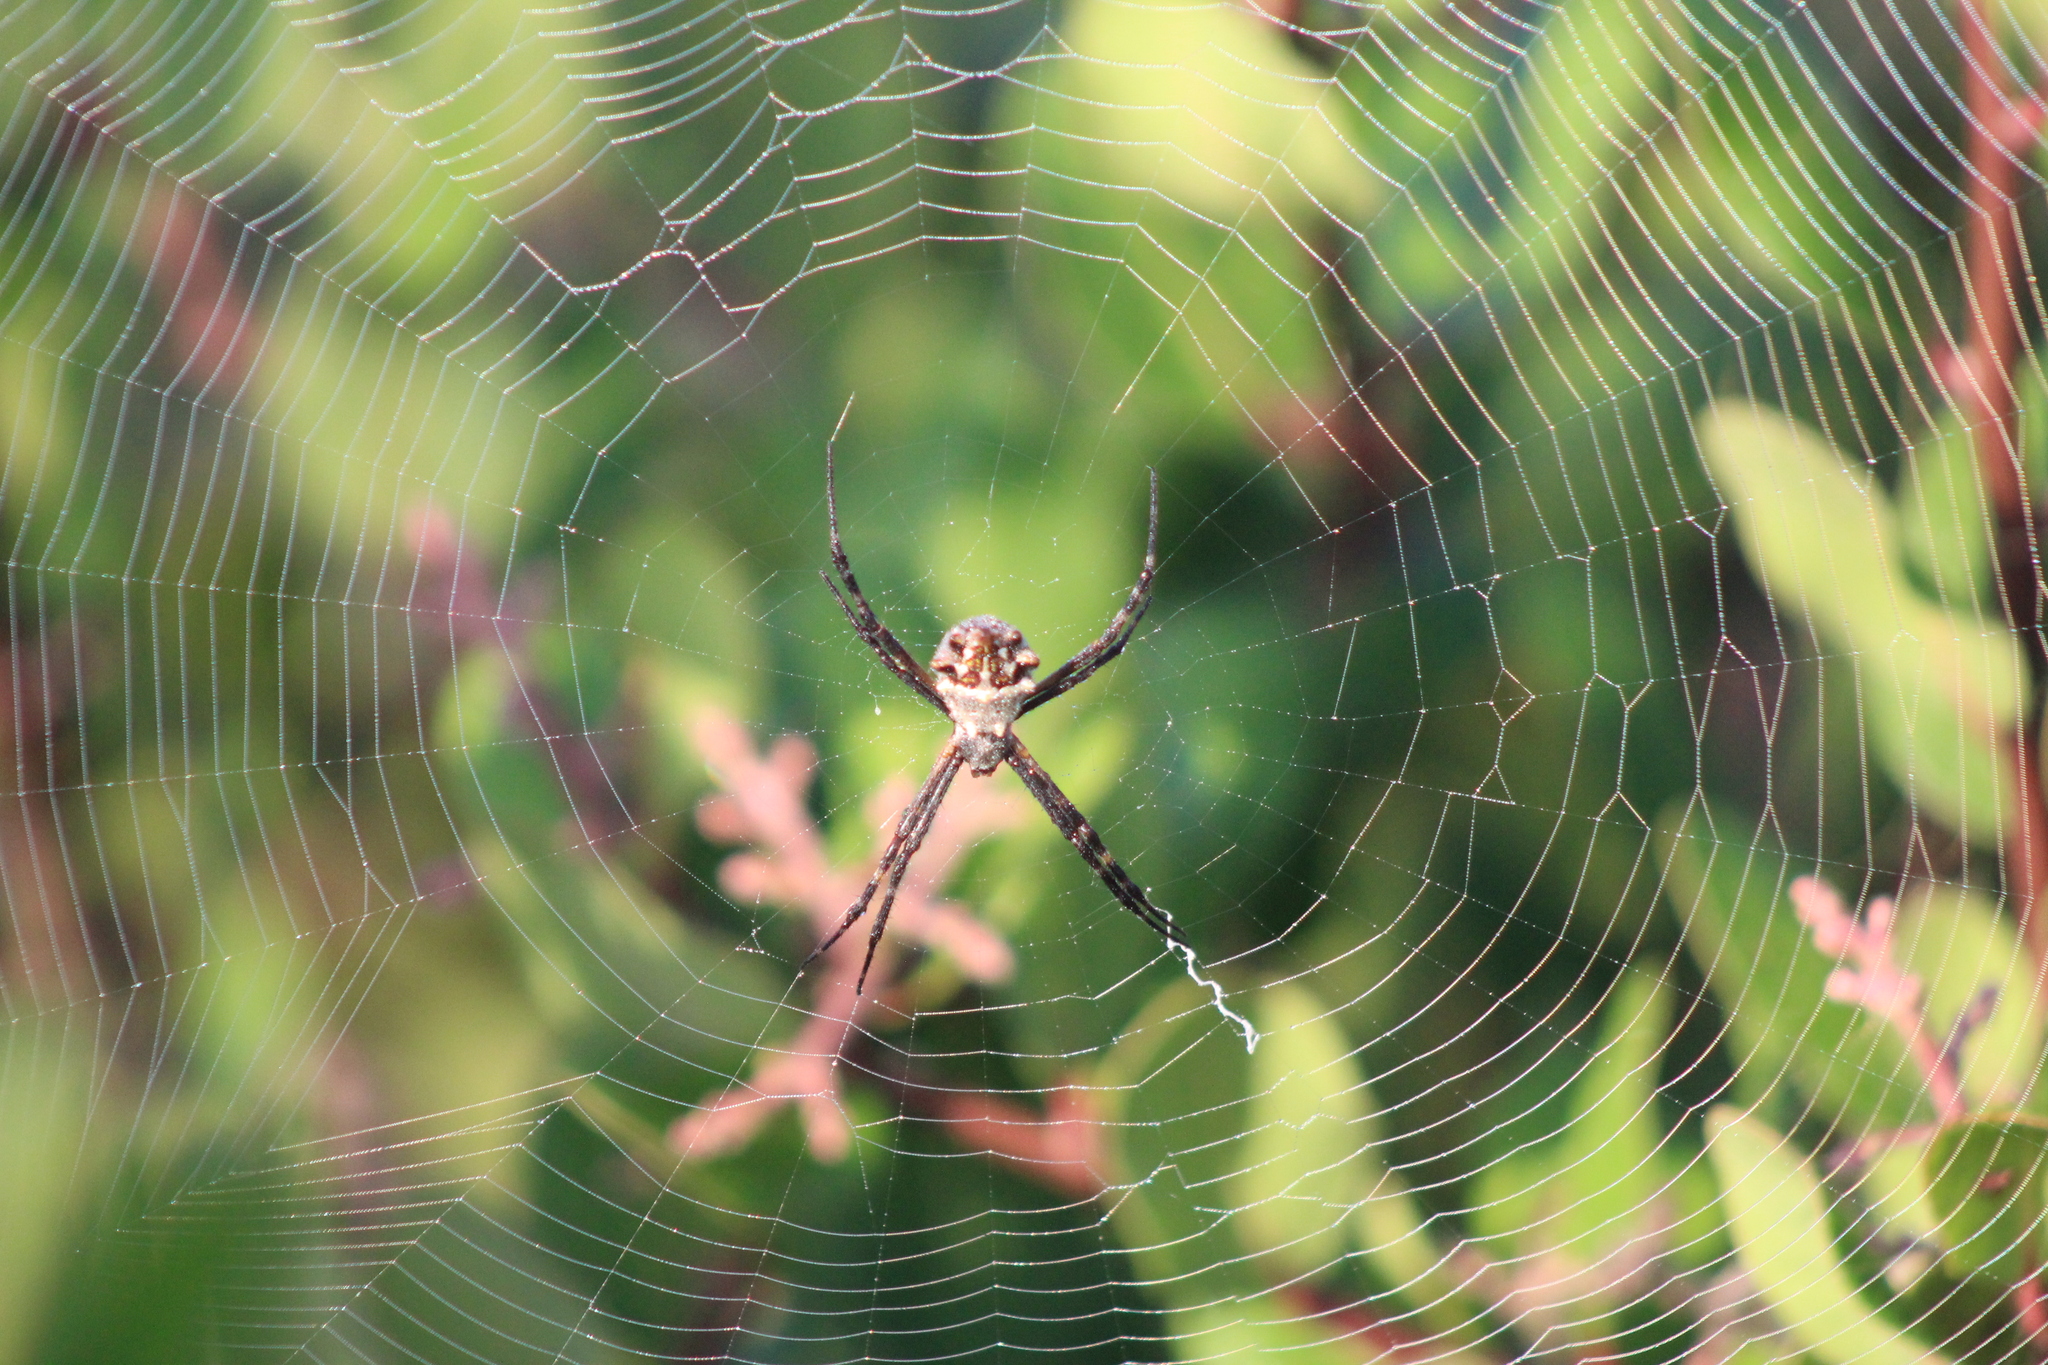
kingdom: Animalia
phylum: Arthropoda
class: Arachnida
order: Araneae
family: Araneidae
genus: Argiope
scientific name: Argiope argentata
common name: Orb weavers
